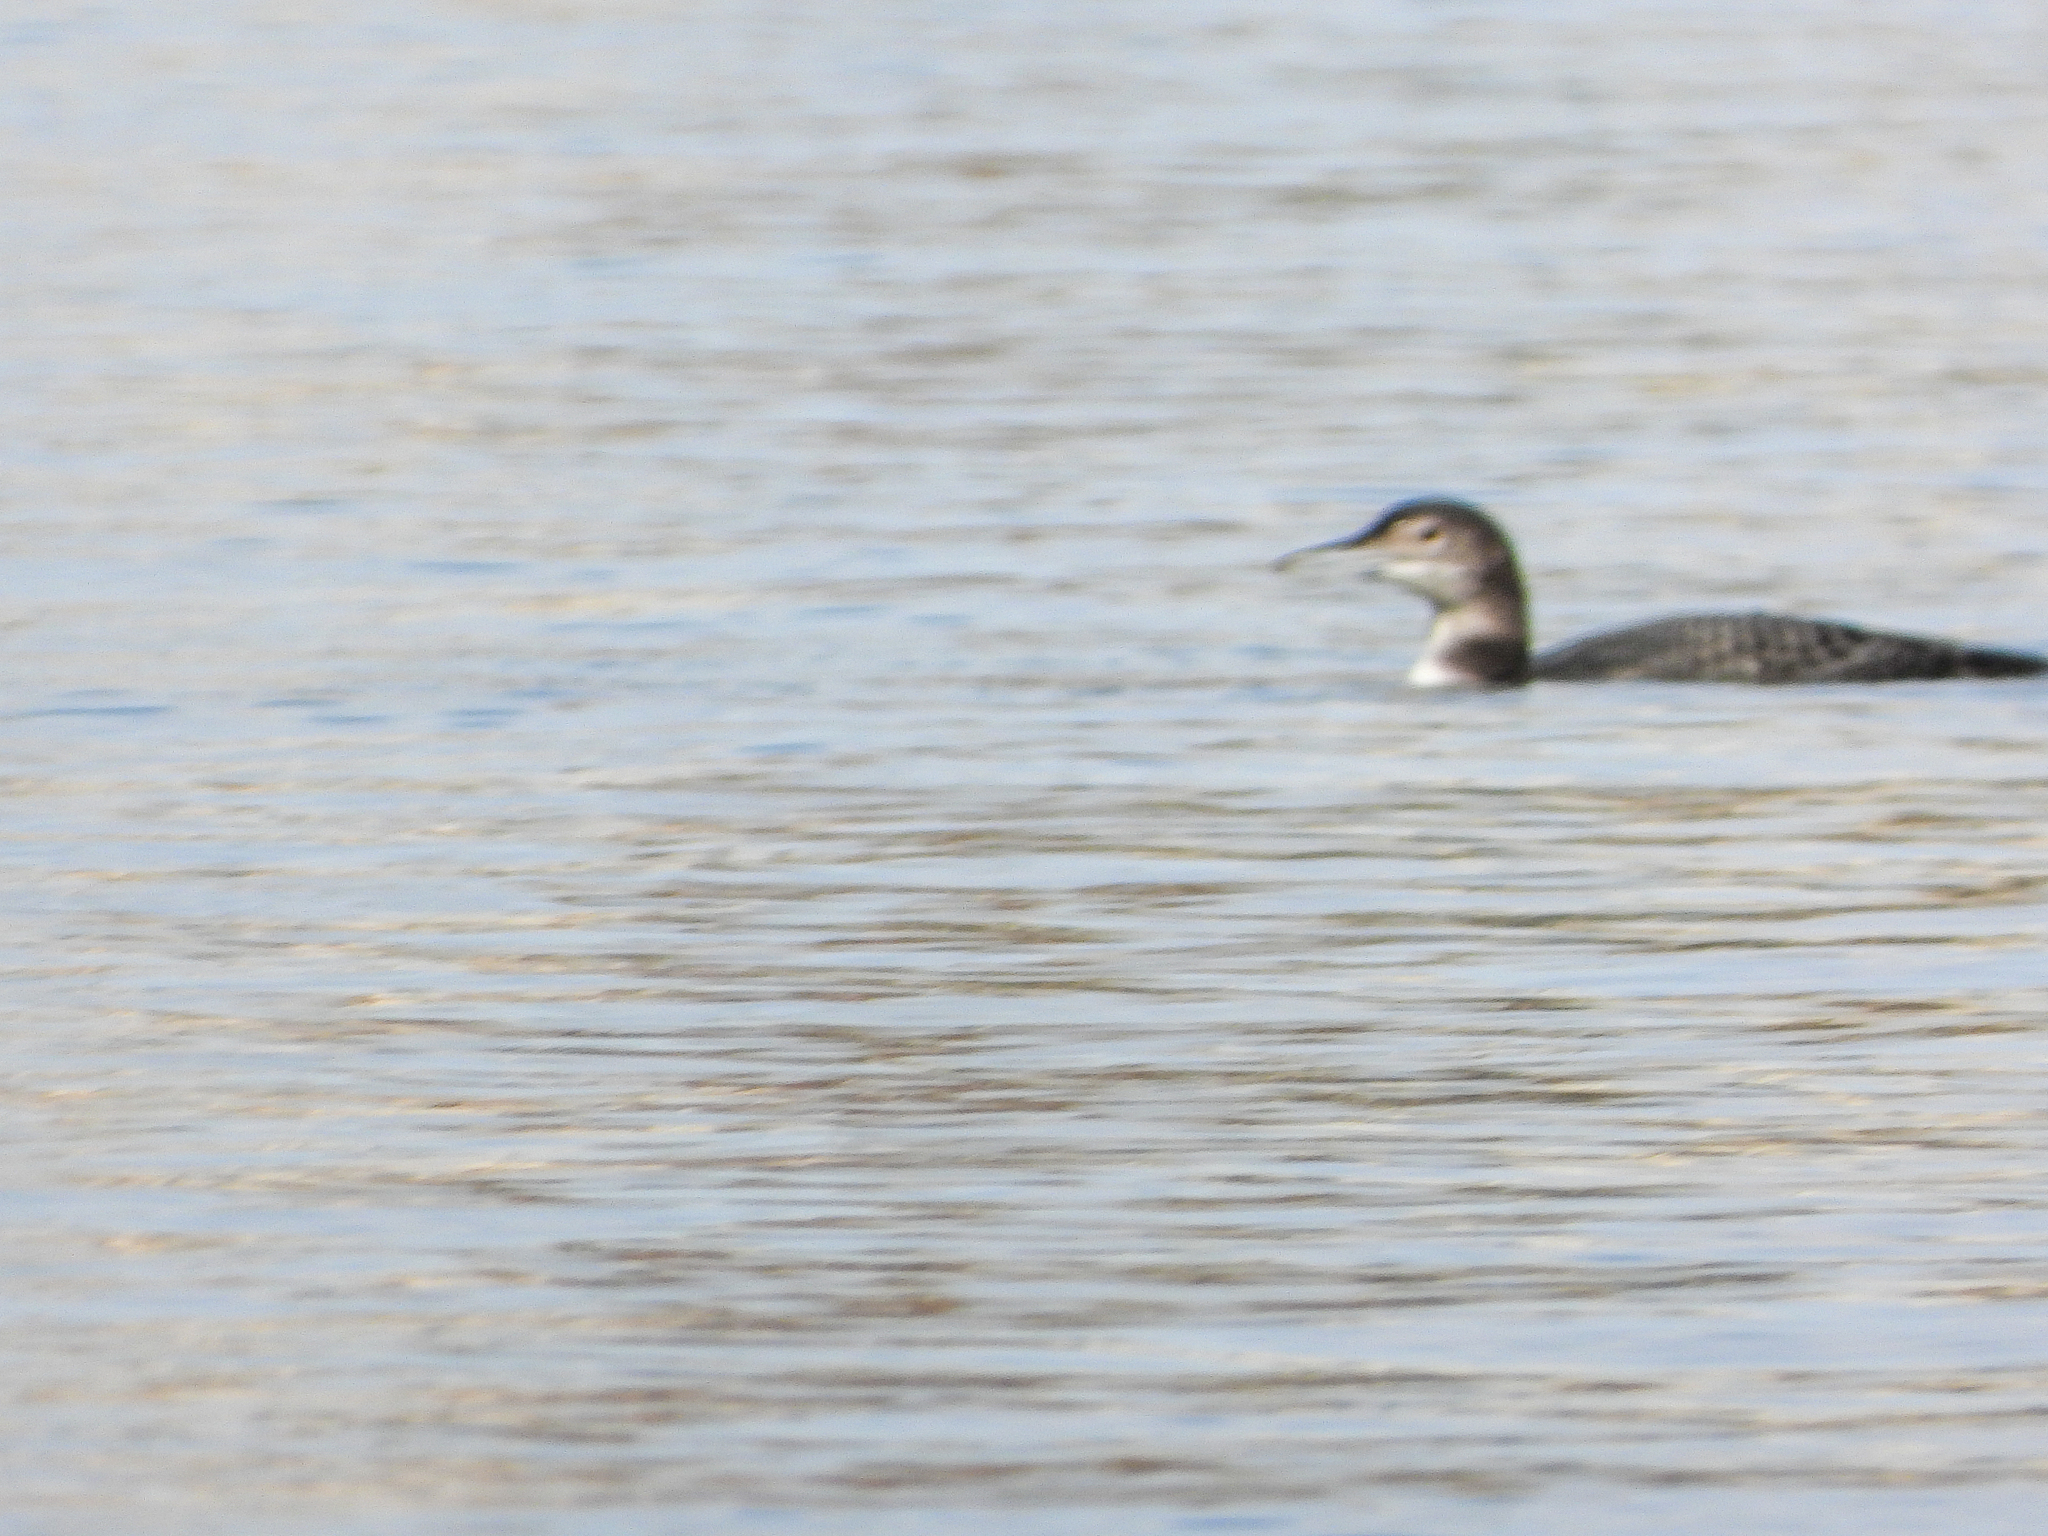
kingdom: Animalia
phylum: Chordata
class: Aves
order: Gaviiformes
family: Gaviidae
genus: Gavia
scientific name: Gavia immer
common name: Common loon
